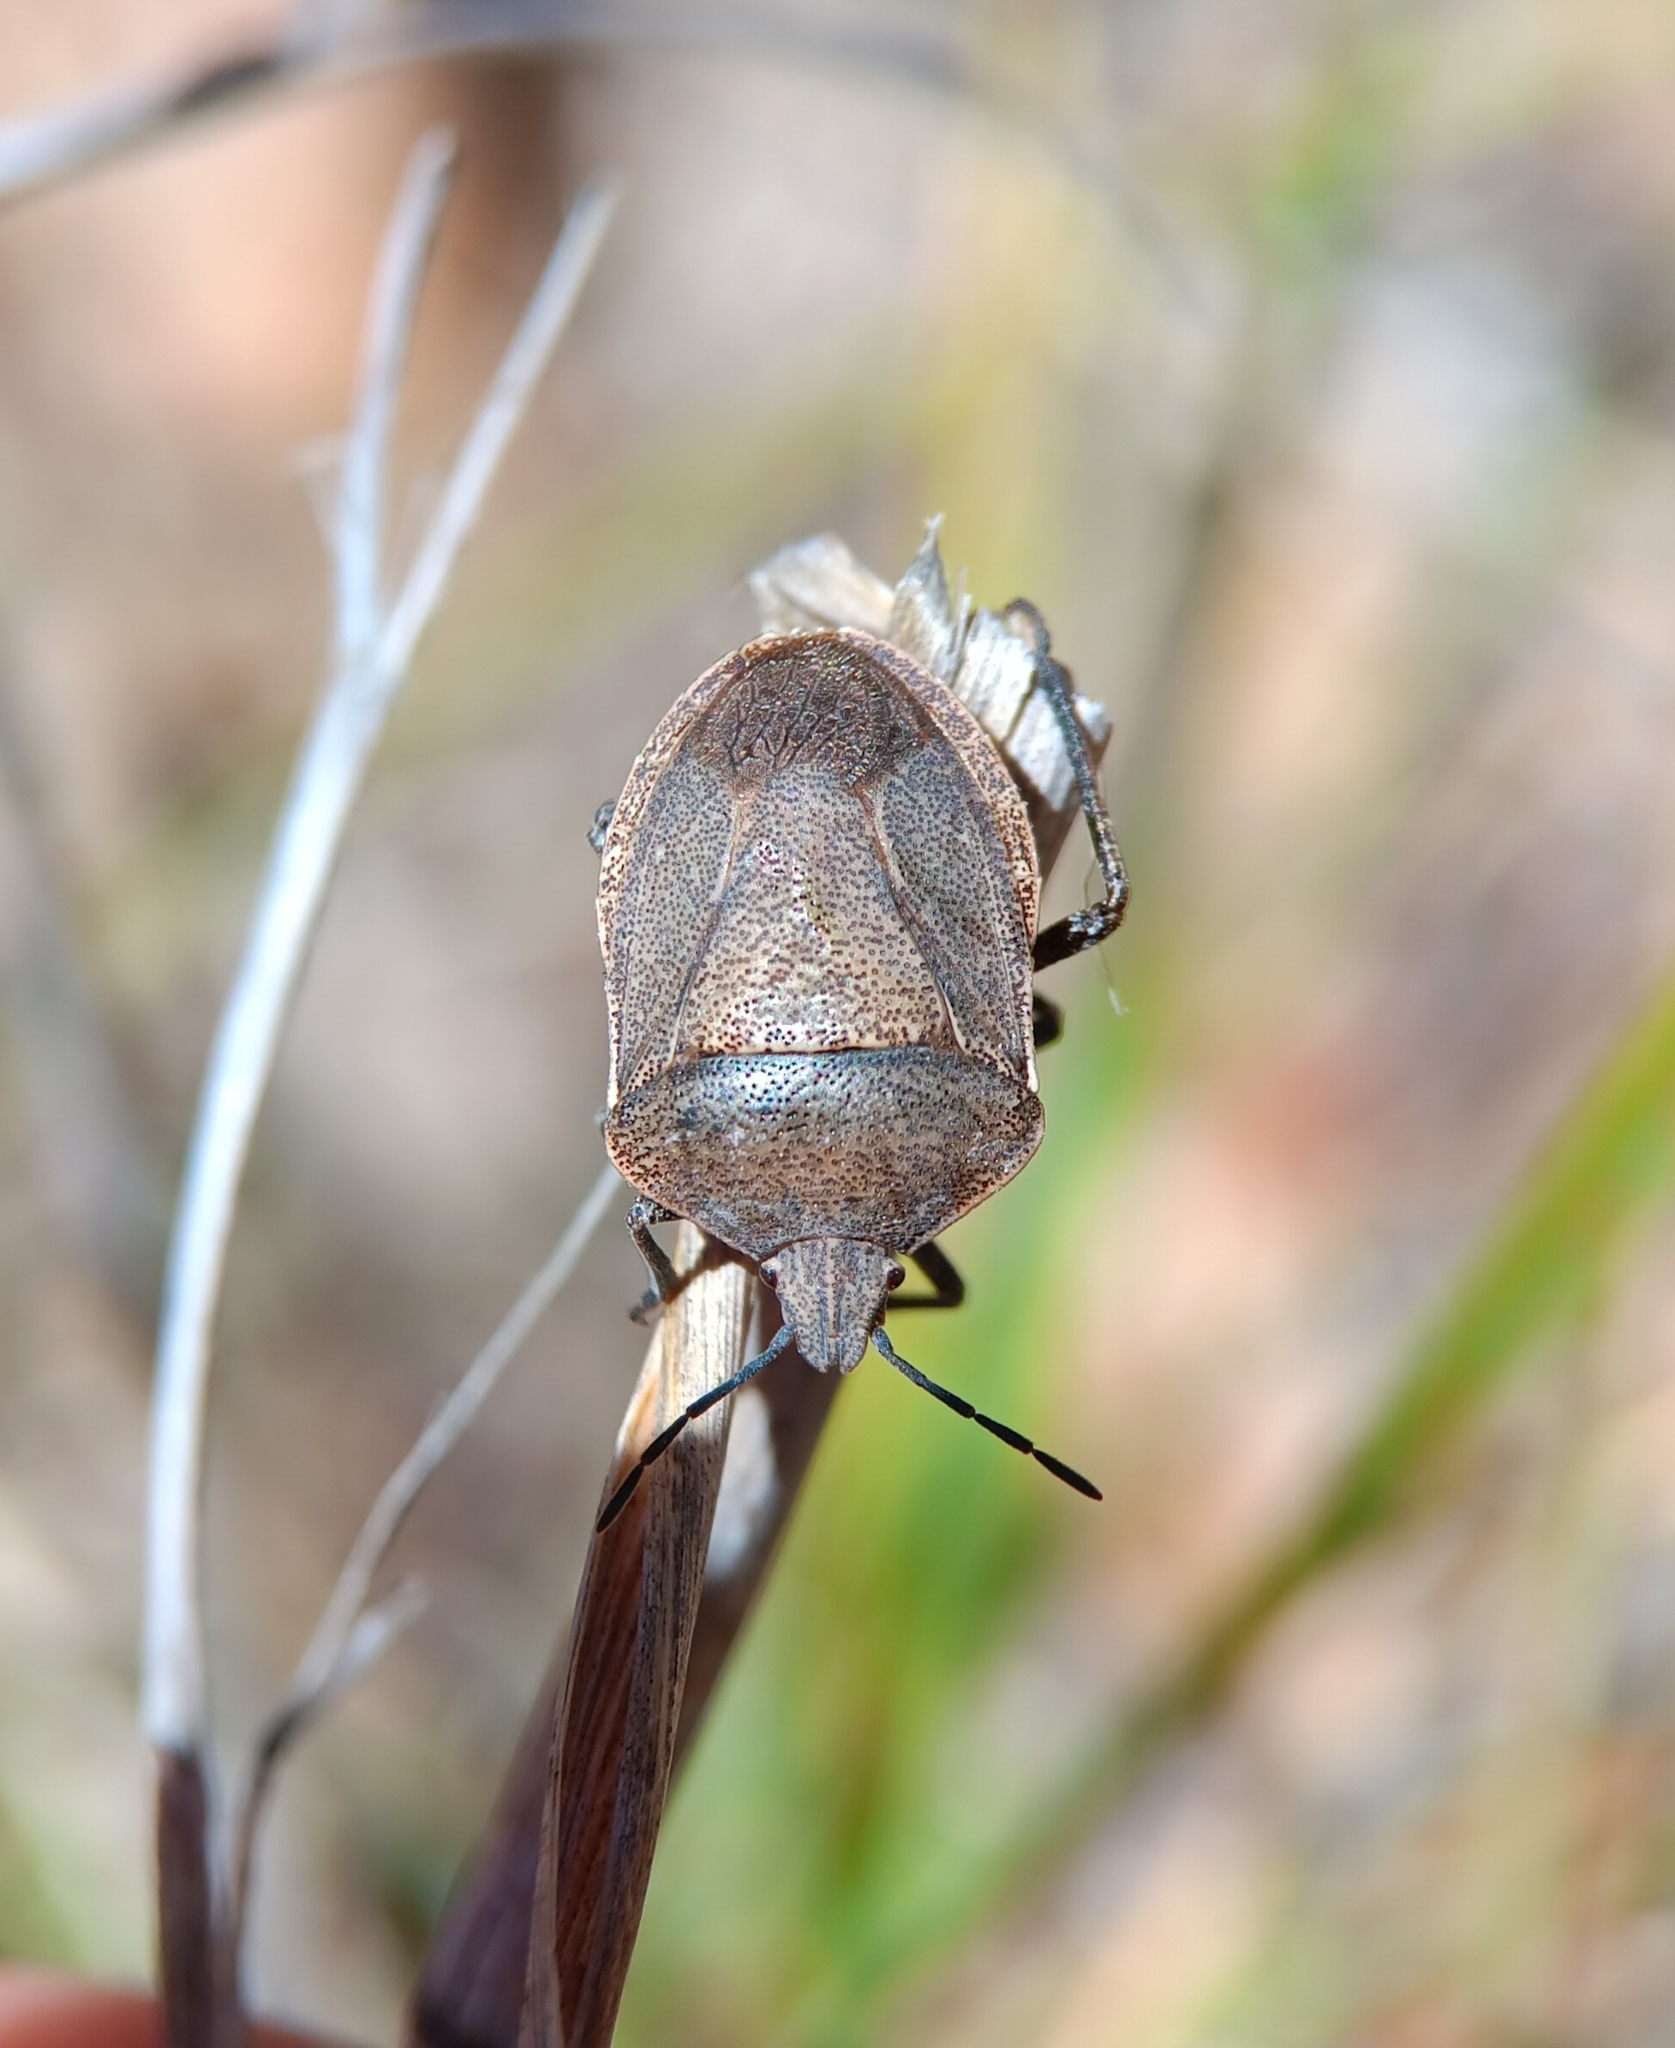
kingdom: Animalia
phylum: Arthropoda
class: Insecta
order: Hemiptera
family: Pentatomidae
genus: Hymenarcys
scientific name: Hymenarcys crassa
